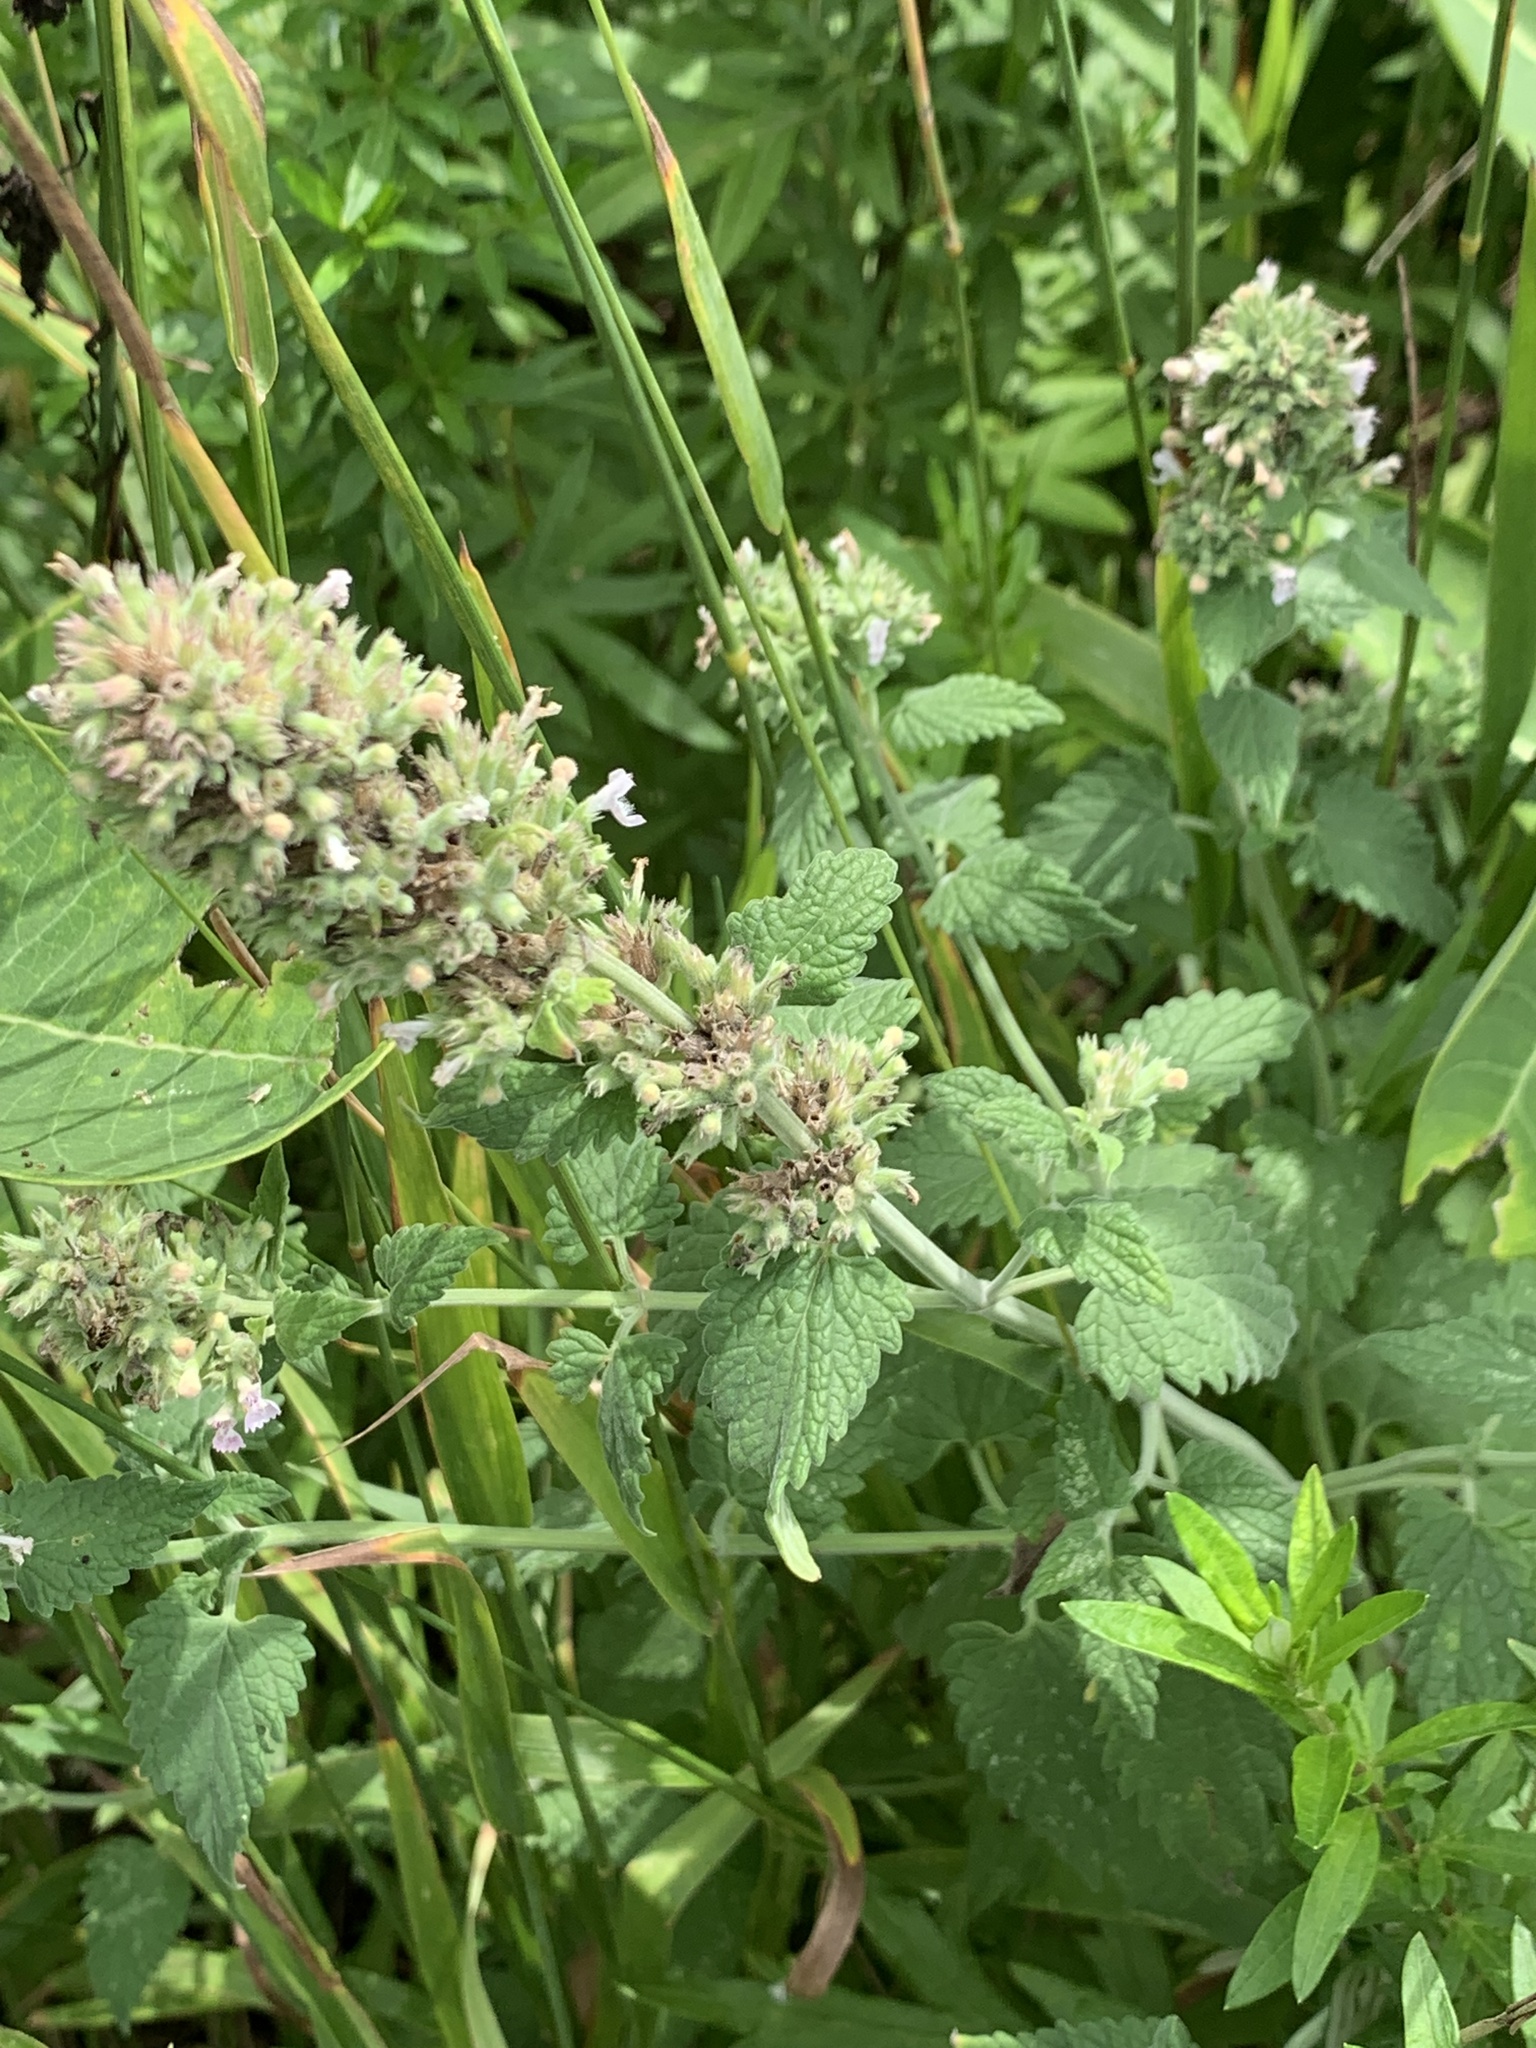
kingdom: Plantae
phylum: Tracheophyta
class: Magnoliopsida
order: Lamiales
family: Lamiaceae
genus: Nepeta
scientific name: Nepeta cataria
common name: Catnip
